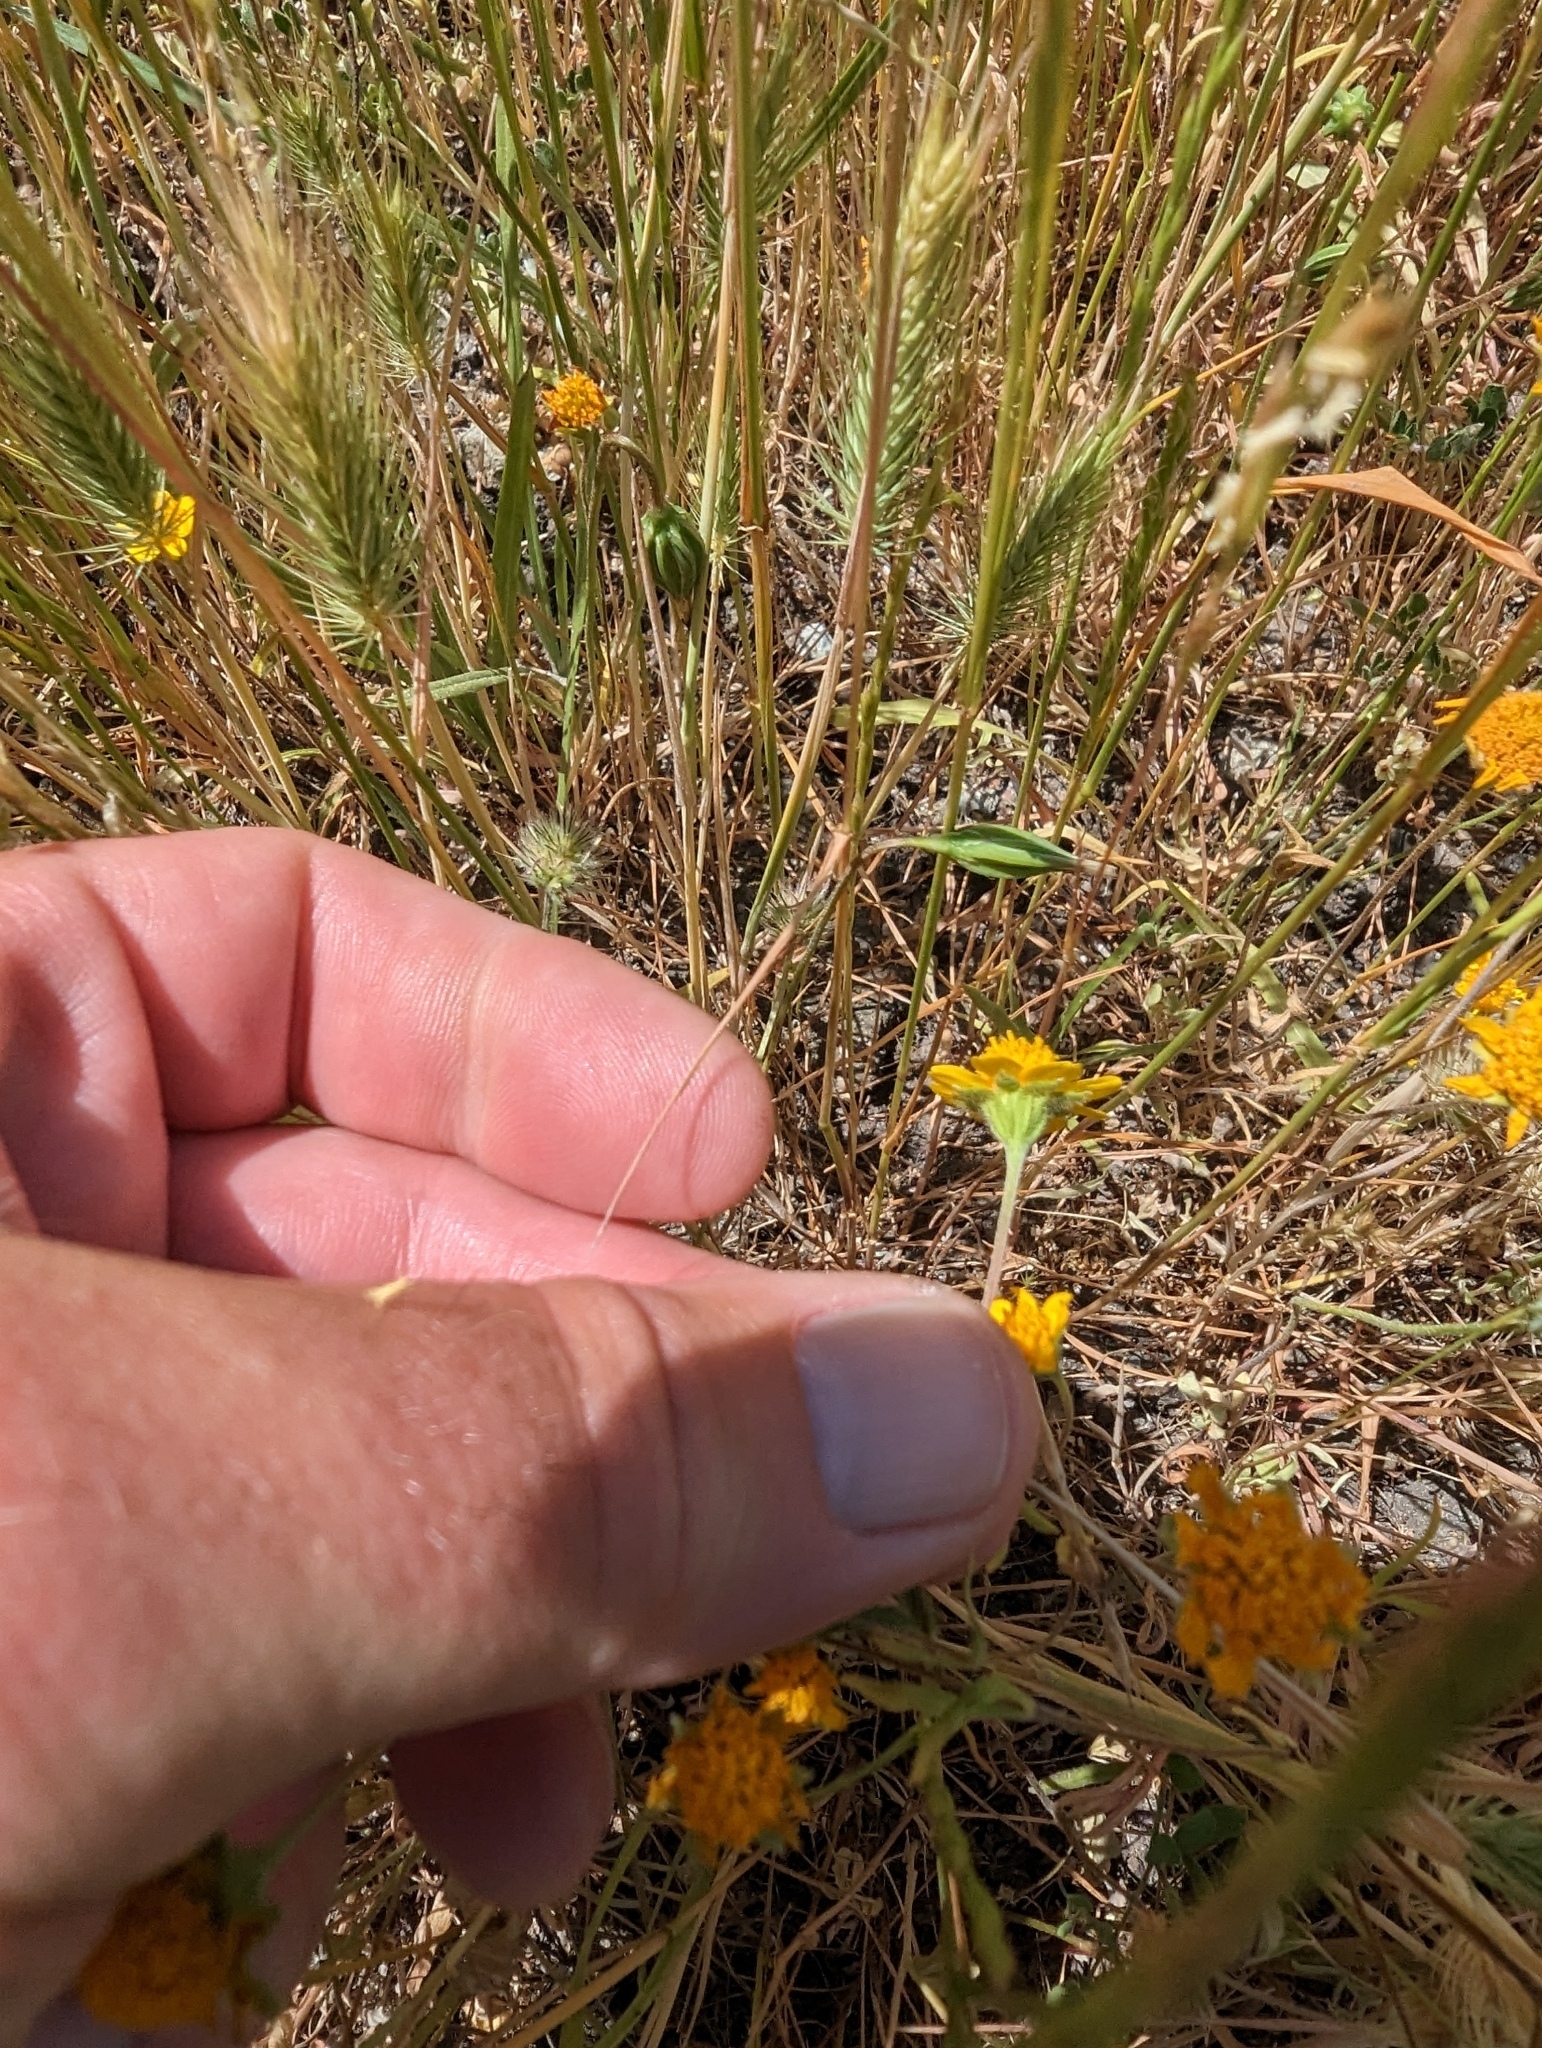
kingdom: Plantae
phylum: Tracheophyta
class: Magnoliopsida
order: Asterales
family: Asteraceae
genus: Lasthenia
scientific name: Lasthenia californica
